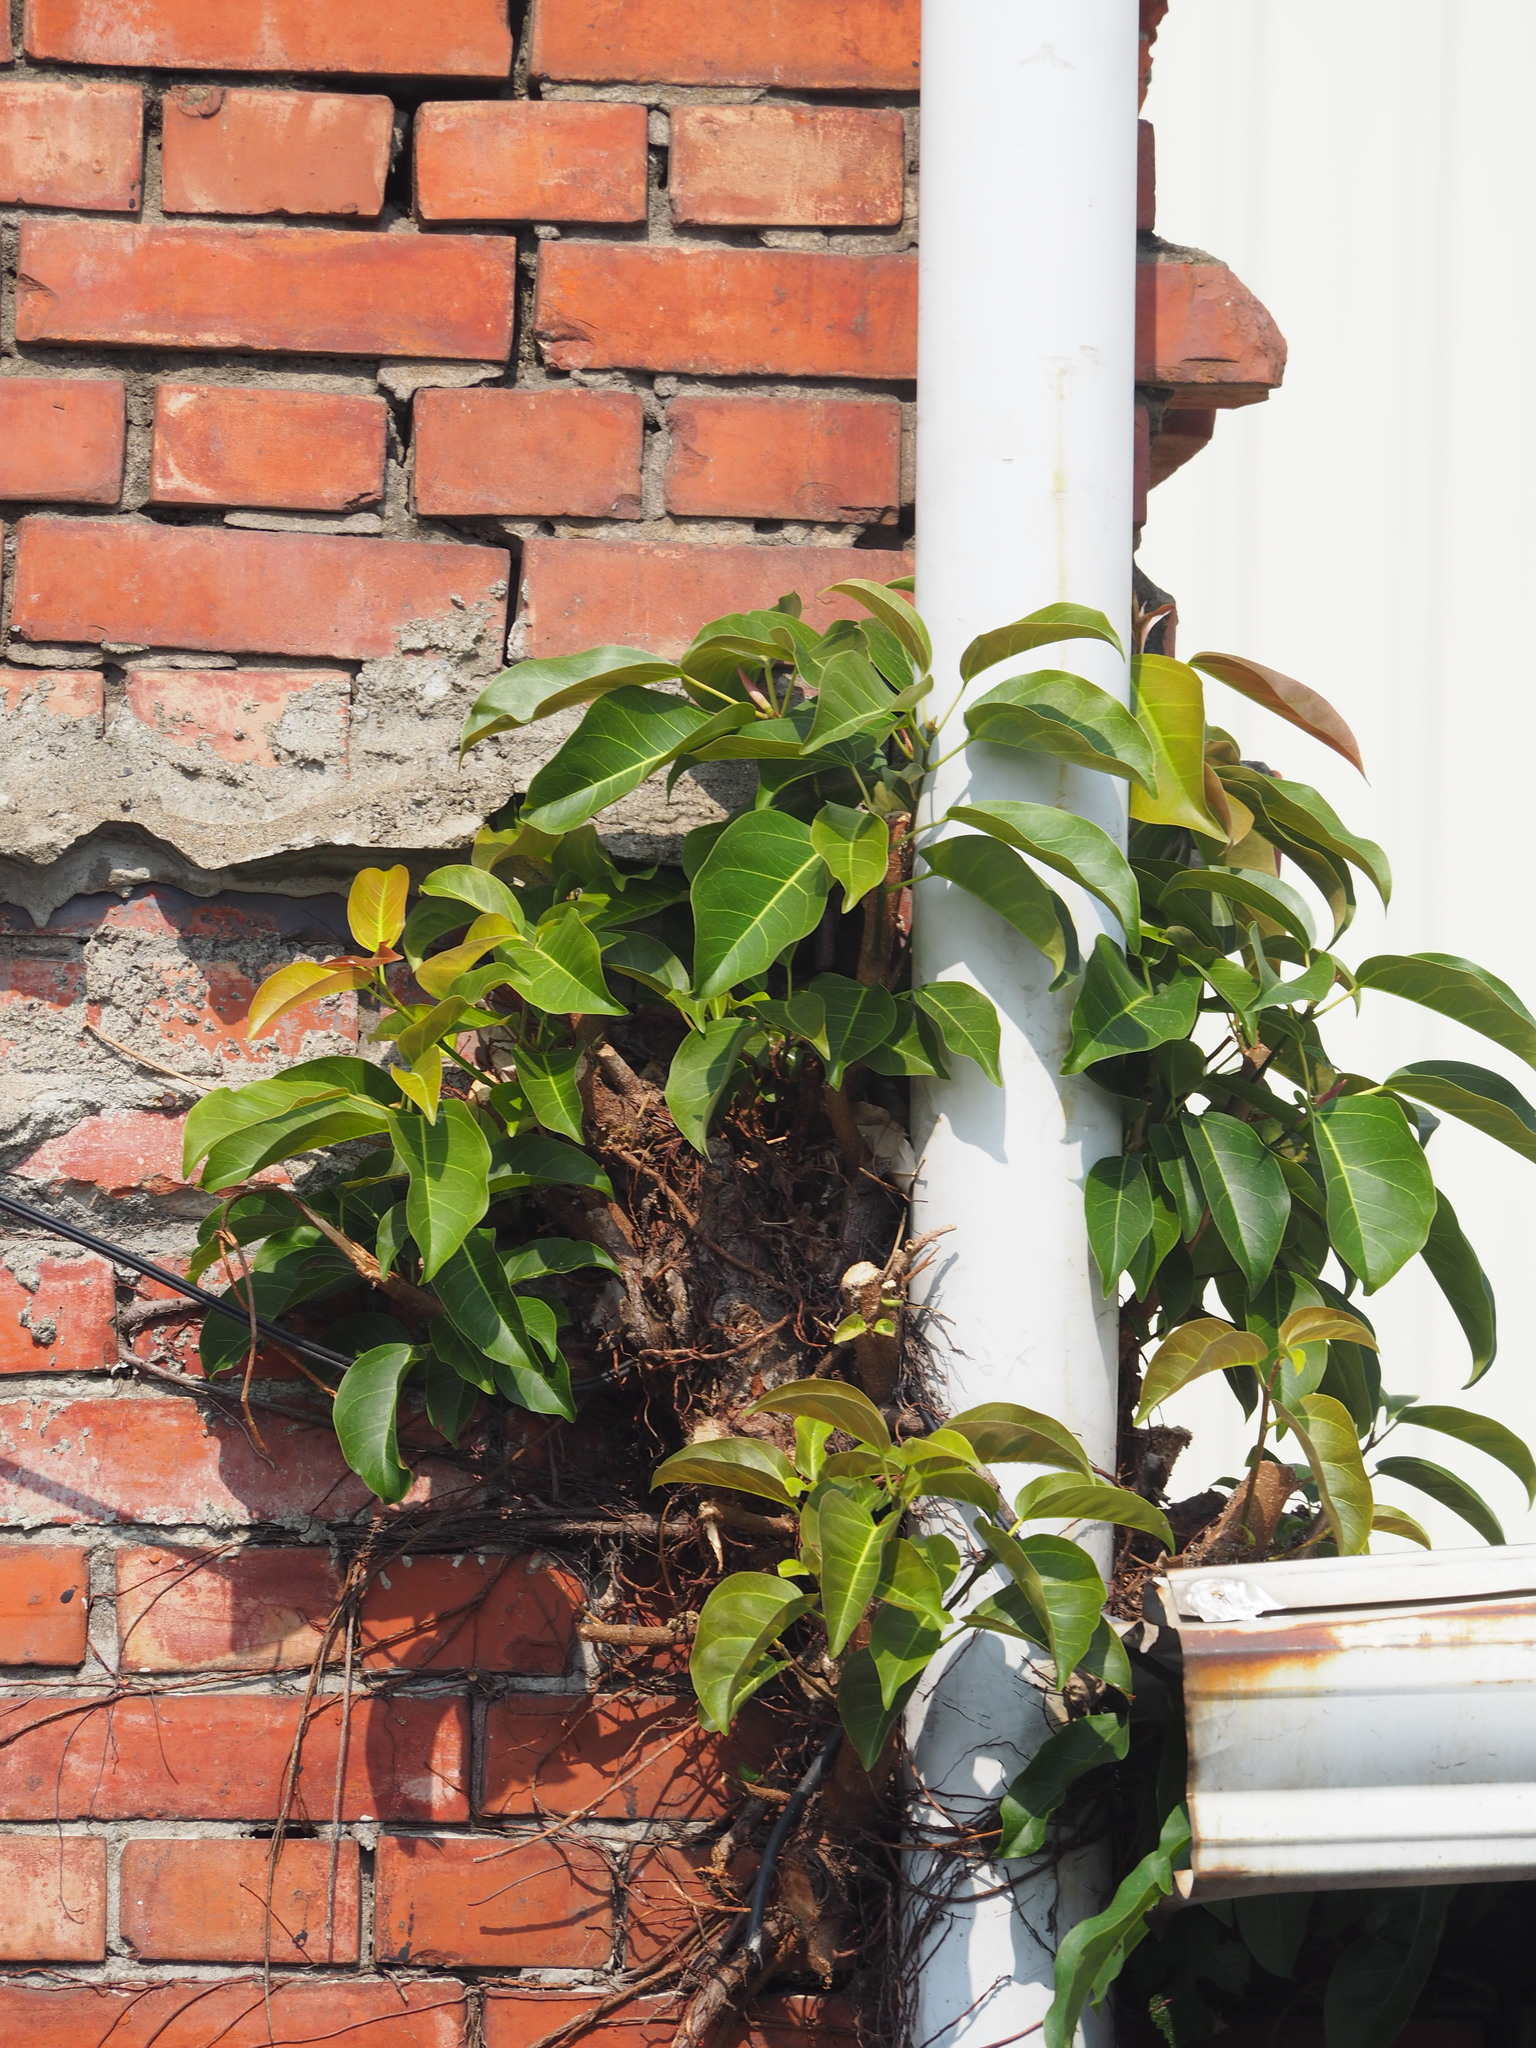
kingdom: Plantae
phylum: Tracheophyta
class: Magnoliopsida
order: Rosales
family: Moraceae
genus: Ficus
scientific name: Ficus subpisocarpa
